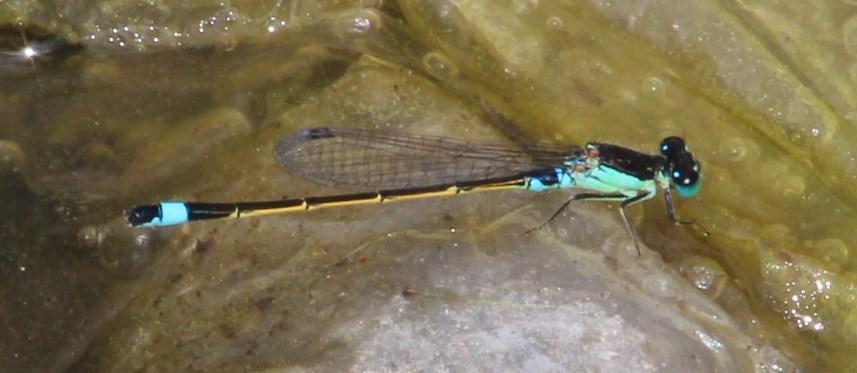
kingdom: Animalia
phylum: Arthropoda
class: Insecta
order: Odonata
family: Coenagrionidae
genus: Ischnura
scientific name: Ischnura senegalensis
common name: Tropical bluetail
